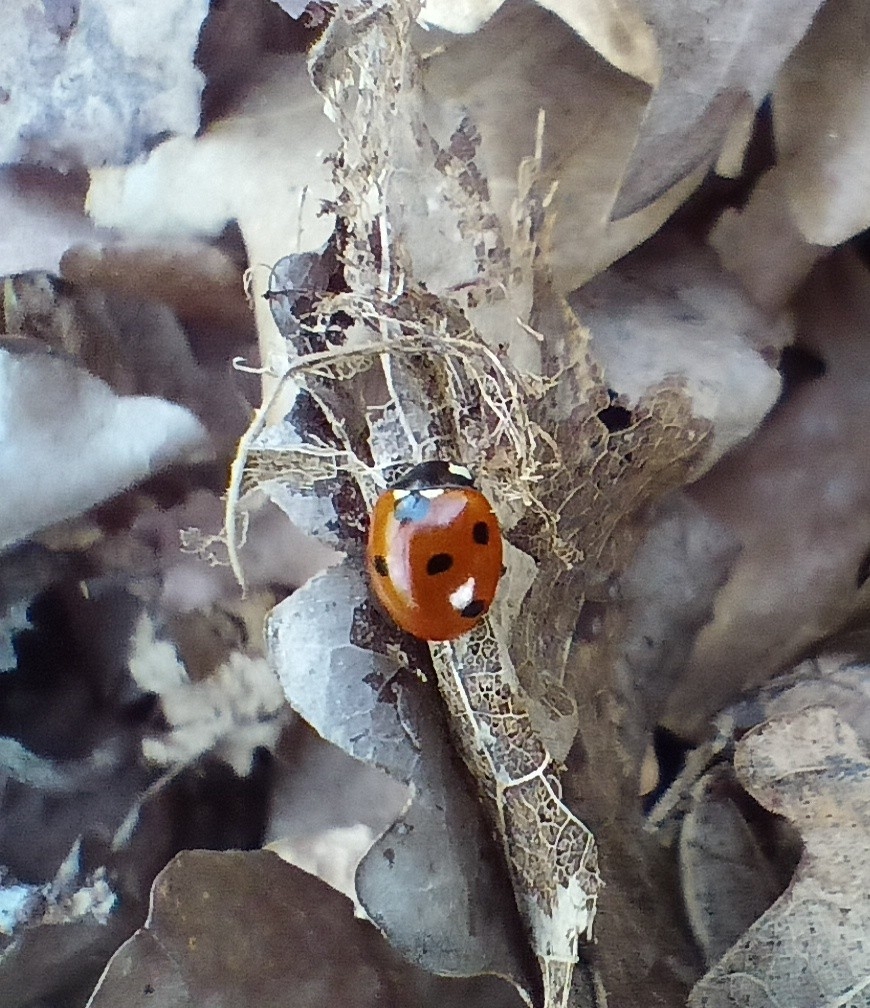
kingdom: Animalia
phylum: Arthropoda
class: Insecta
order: Coleoptera
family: Coccinellidae
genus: Coccinella
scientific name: Coccinella septempunctata
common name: Sevenspotted lady beetle
